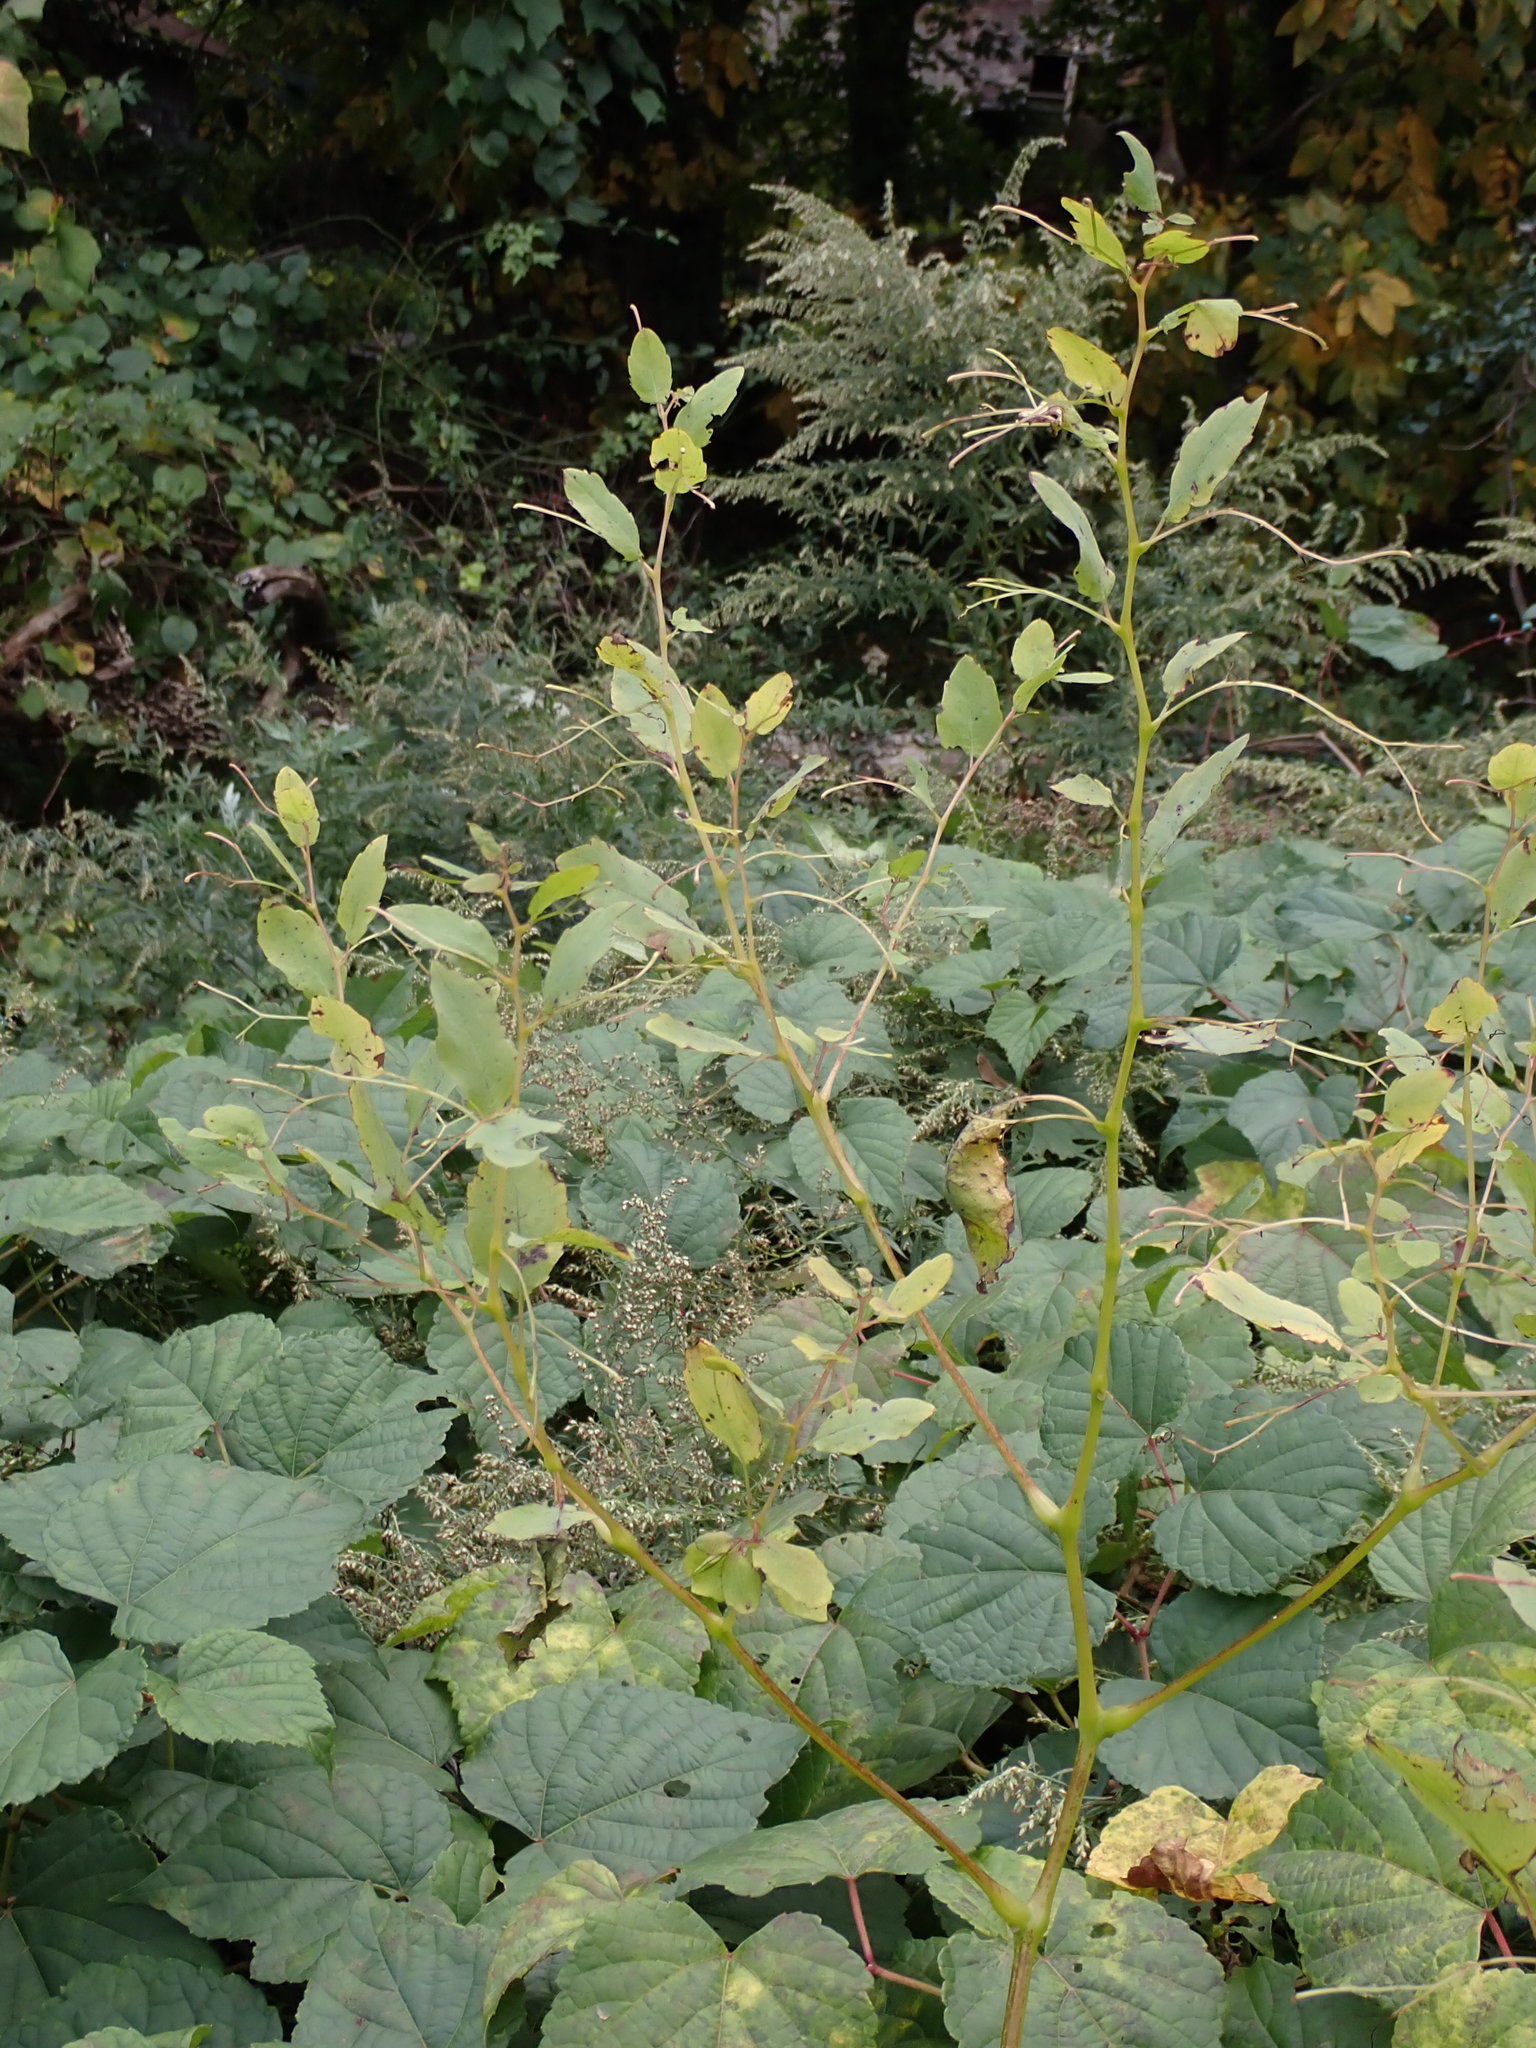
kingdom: Plantae
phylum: Tracheophyta
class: Magnoliopsida
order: Ericales
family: Balsaminaceae
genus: Impatiens
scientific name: Impatiens capensis
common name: Orange balsam
